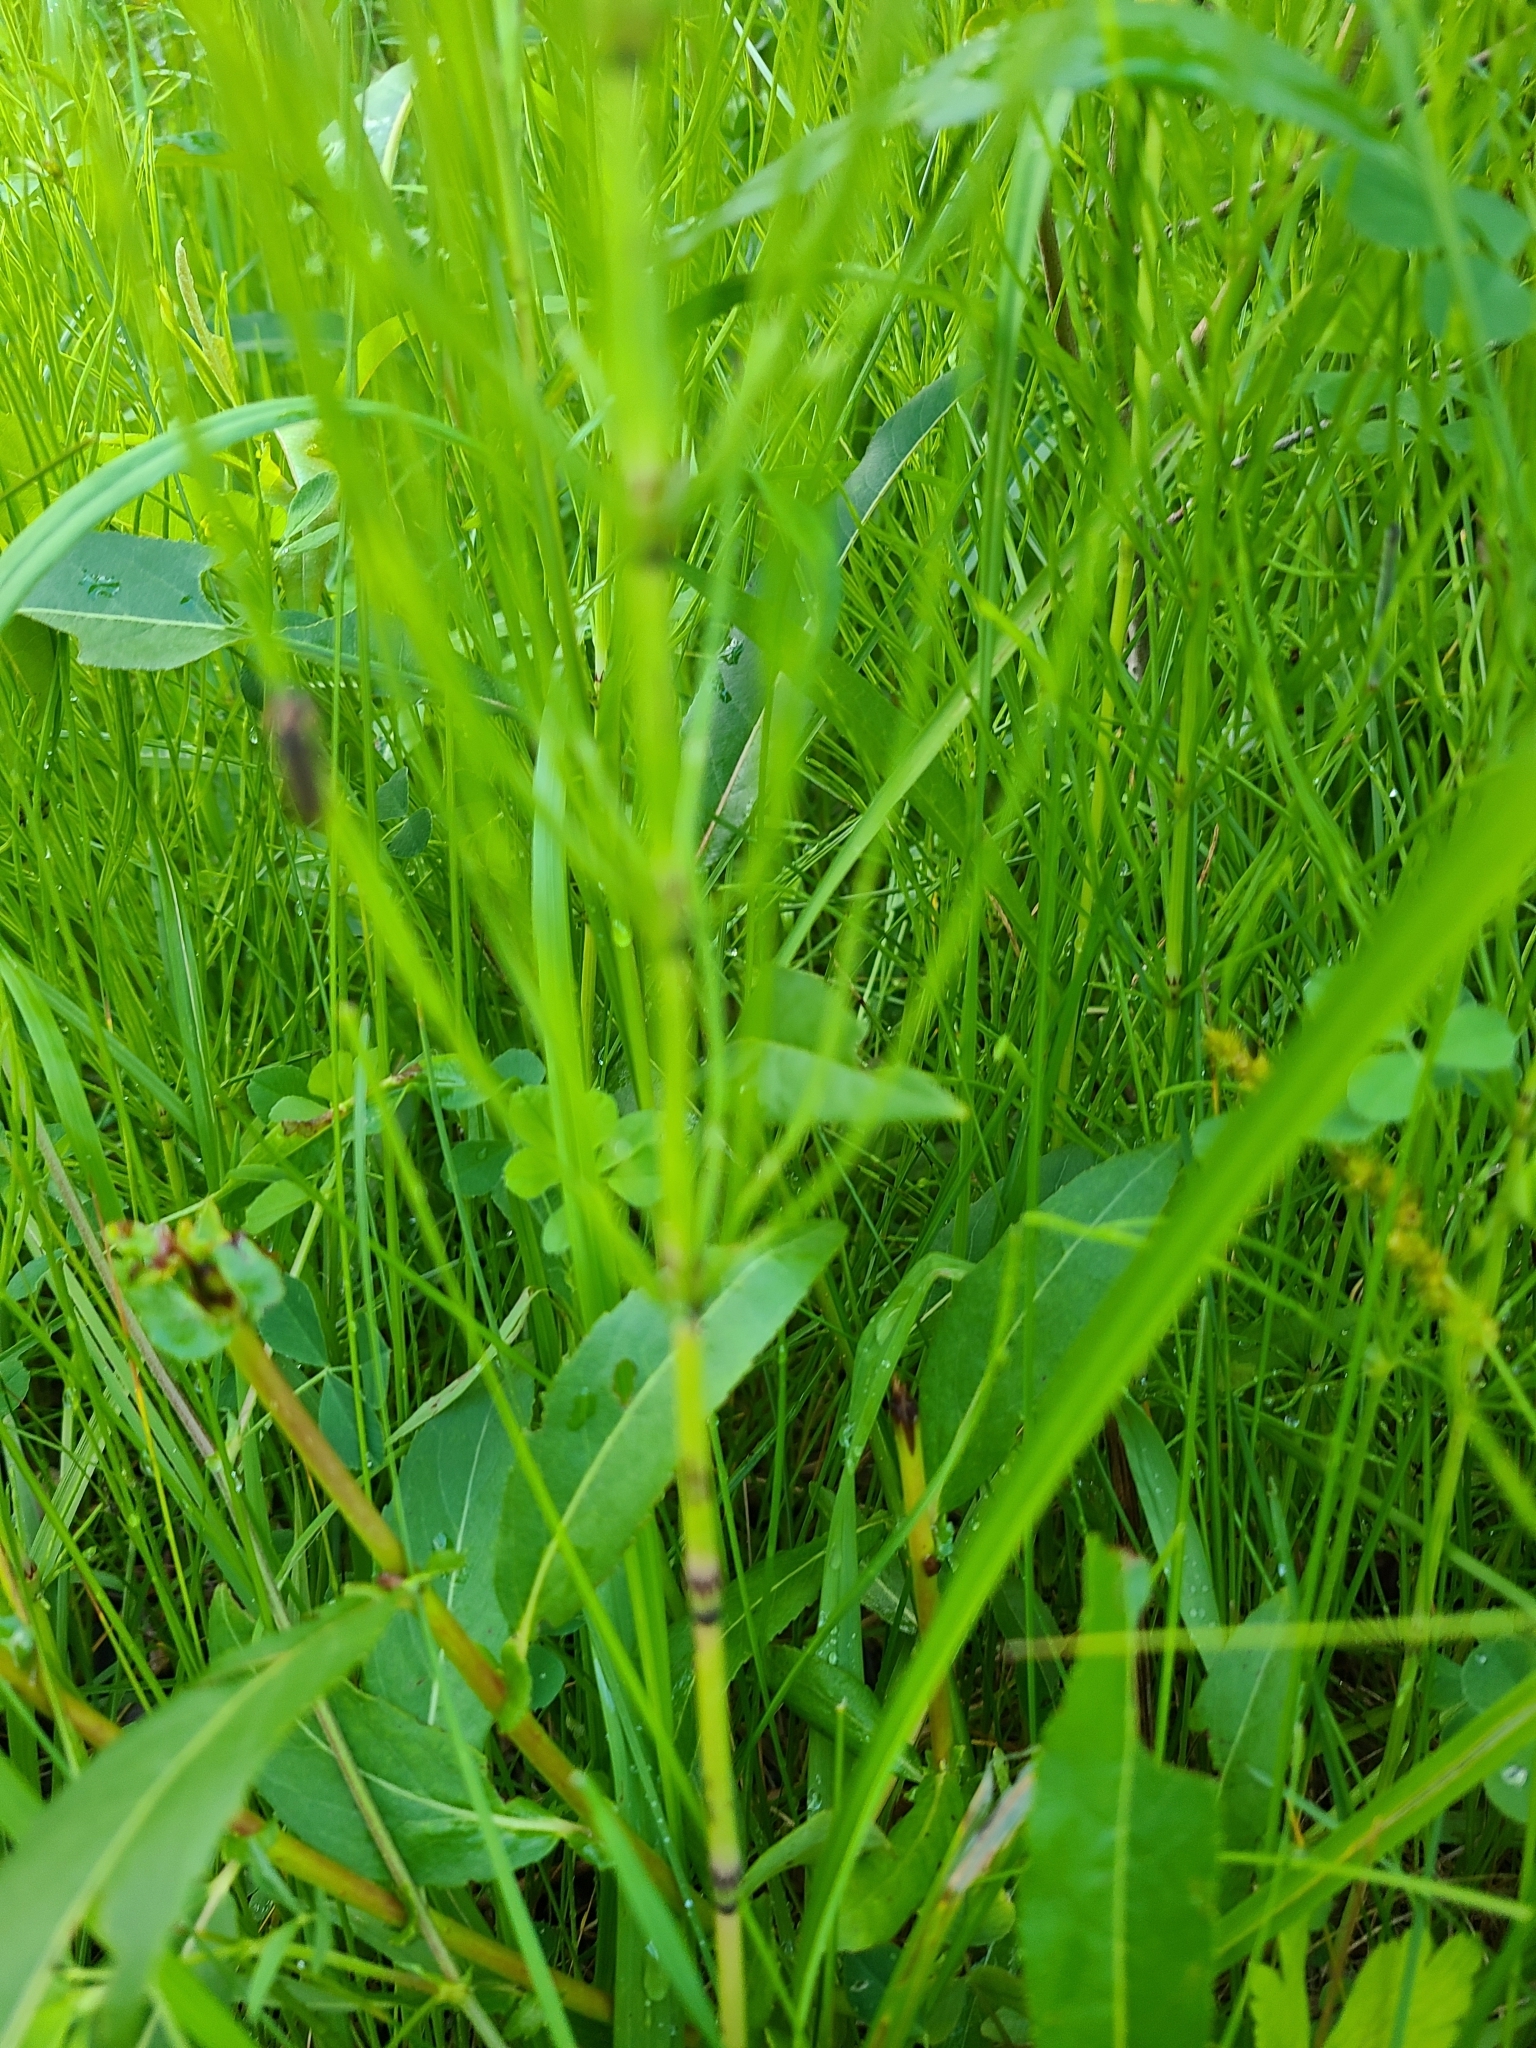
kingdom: Plantae
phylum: Tracheophyta
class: Polypodiopsida
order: Equisetales
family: Equisetaceae
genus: Equisetum
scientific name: Equisetum arvense
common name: Field horsetail
